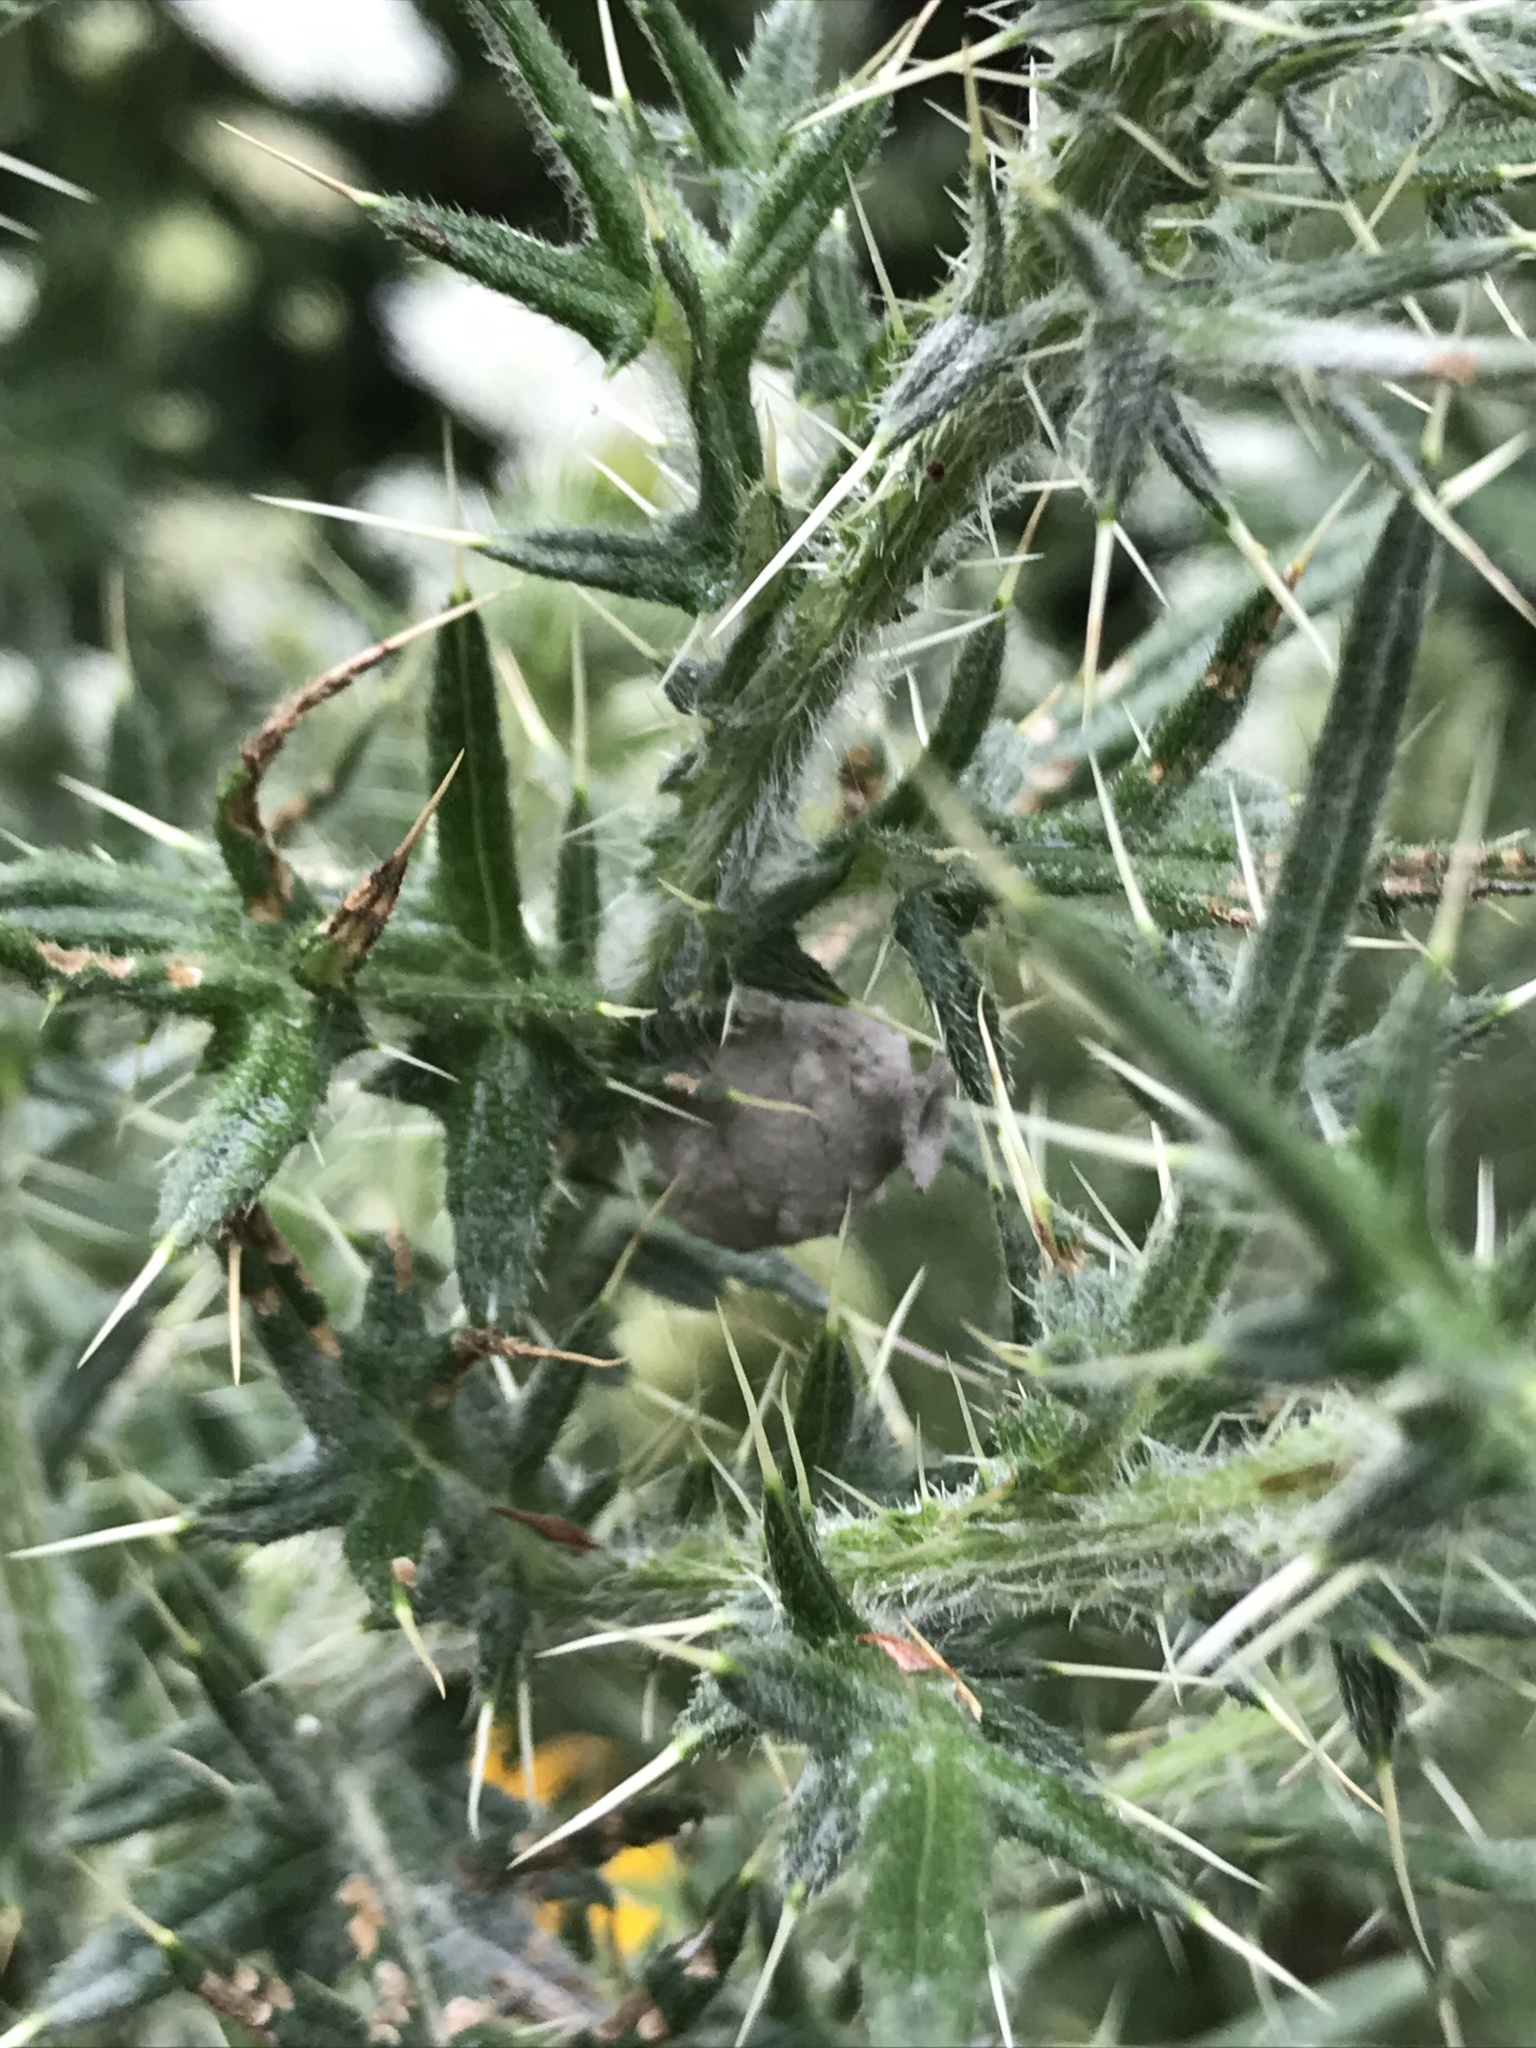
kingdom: Animalia
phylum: Arthropoda
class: Insecta
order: Hymenoptera
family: Vespidae
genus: Eumenes
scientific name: Eumenes
